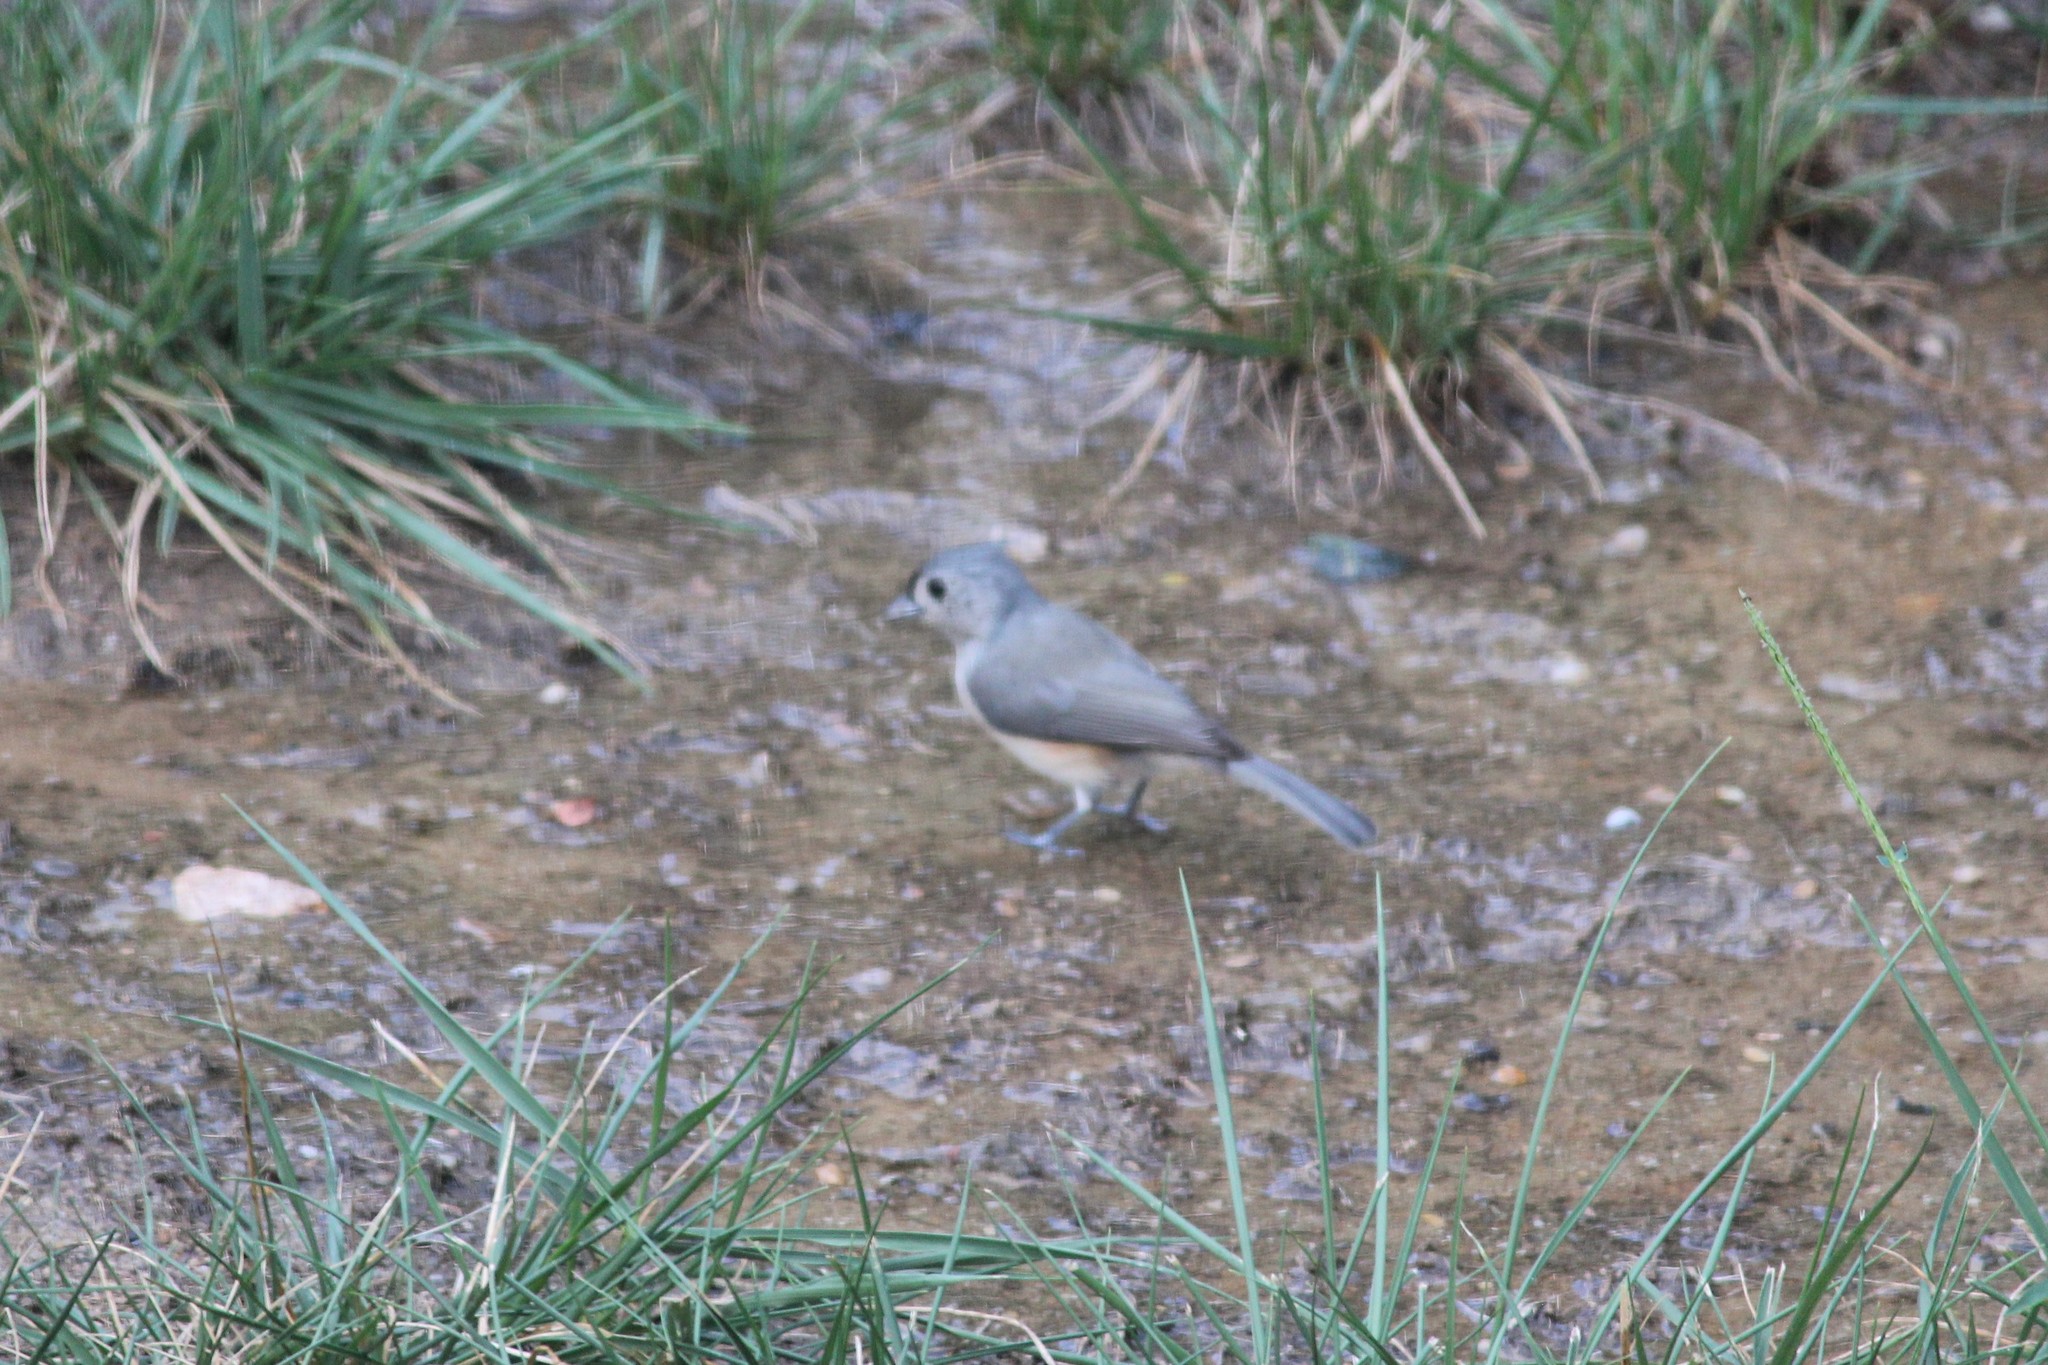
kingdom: Animalia
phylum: Chordata
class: Aves
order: Passeriformes
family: Paridae
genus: Baeolophus
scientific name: Baeolophus bicolor
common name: Tufted titmouse
